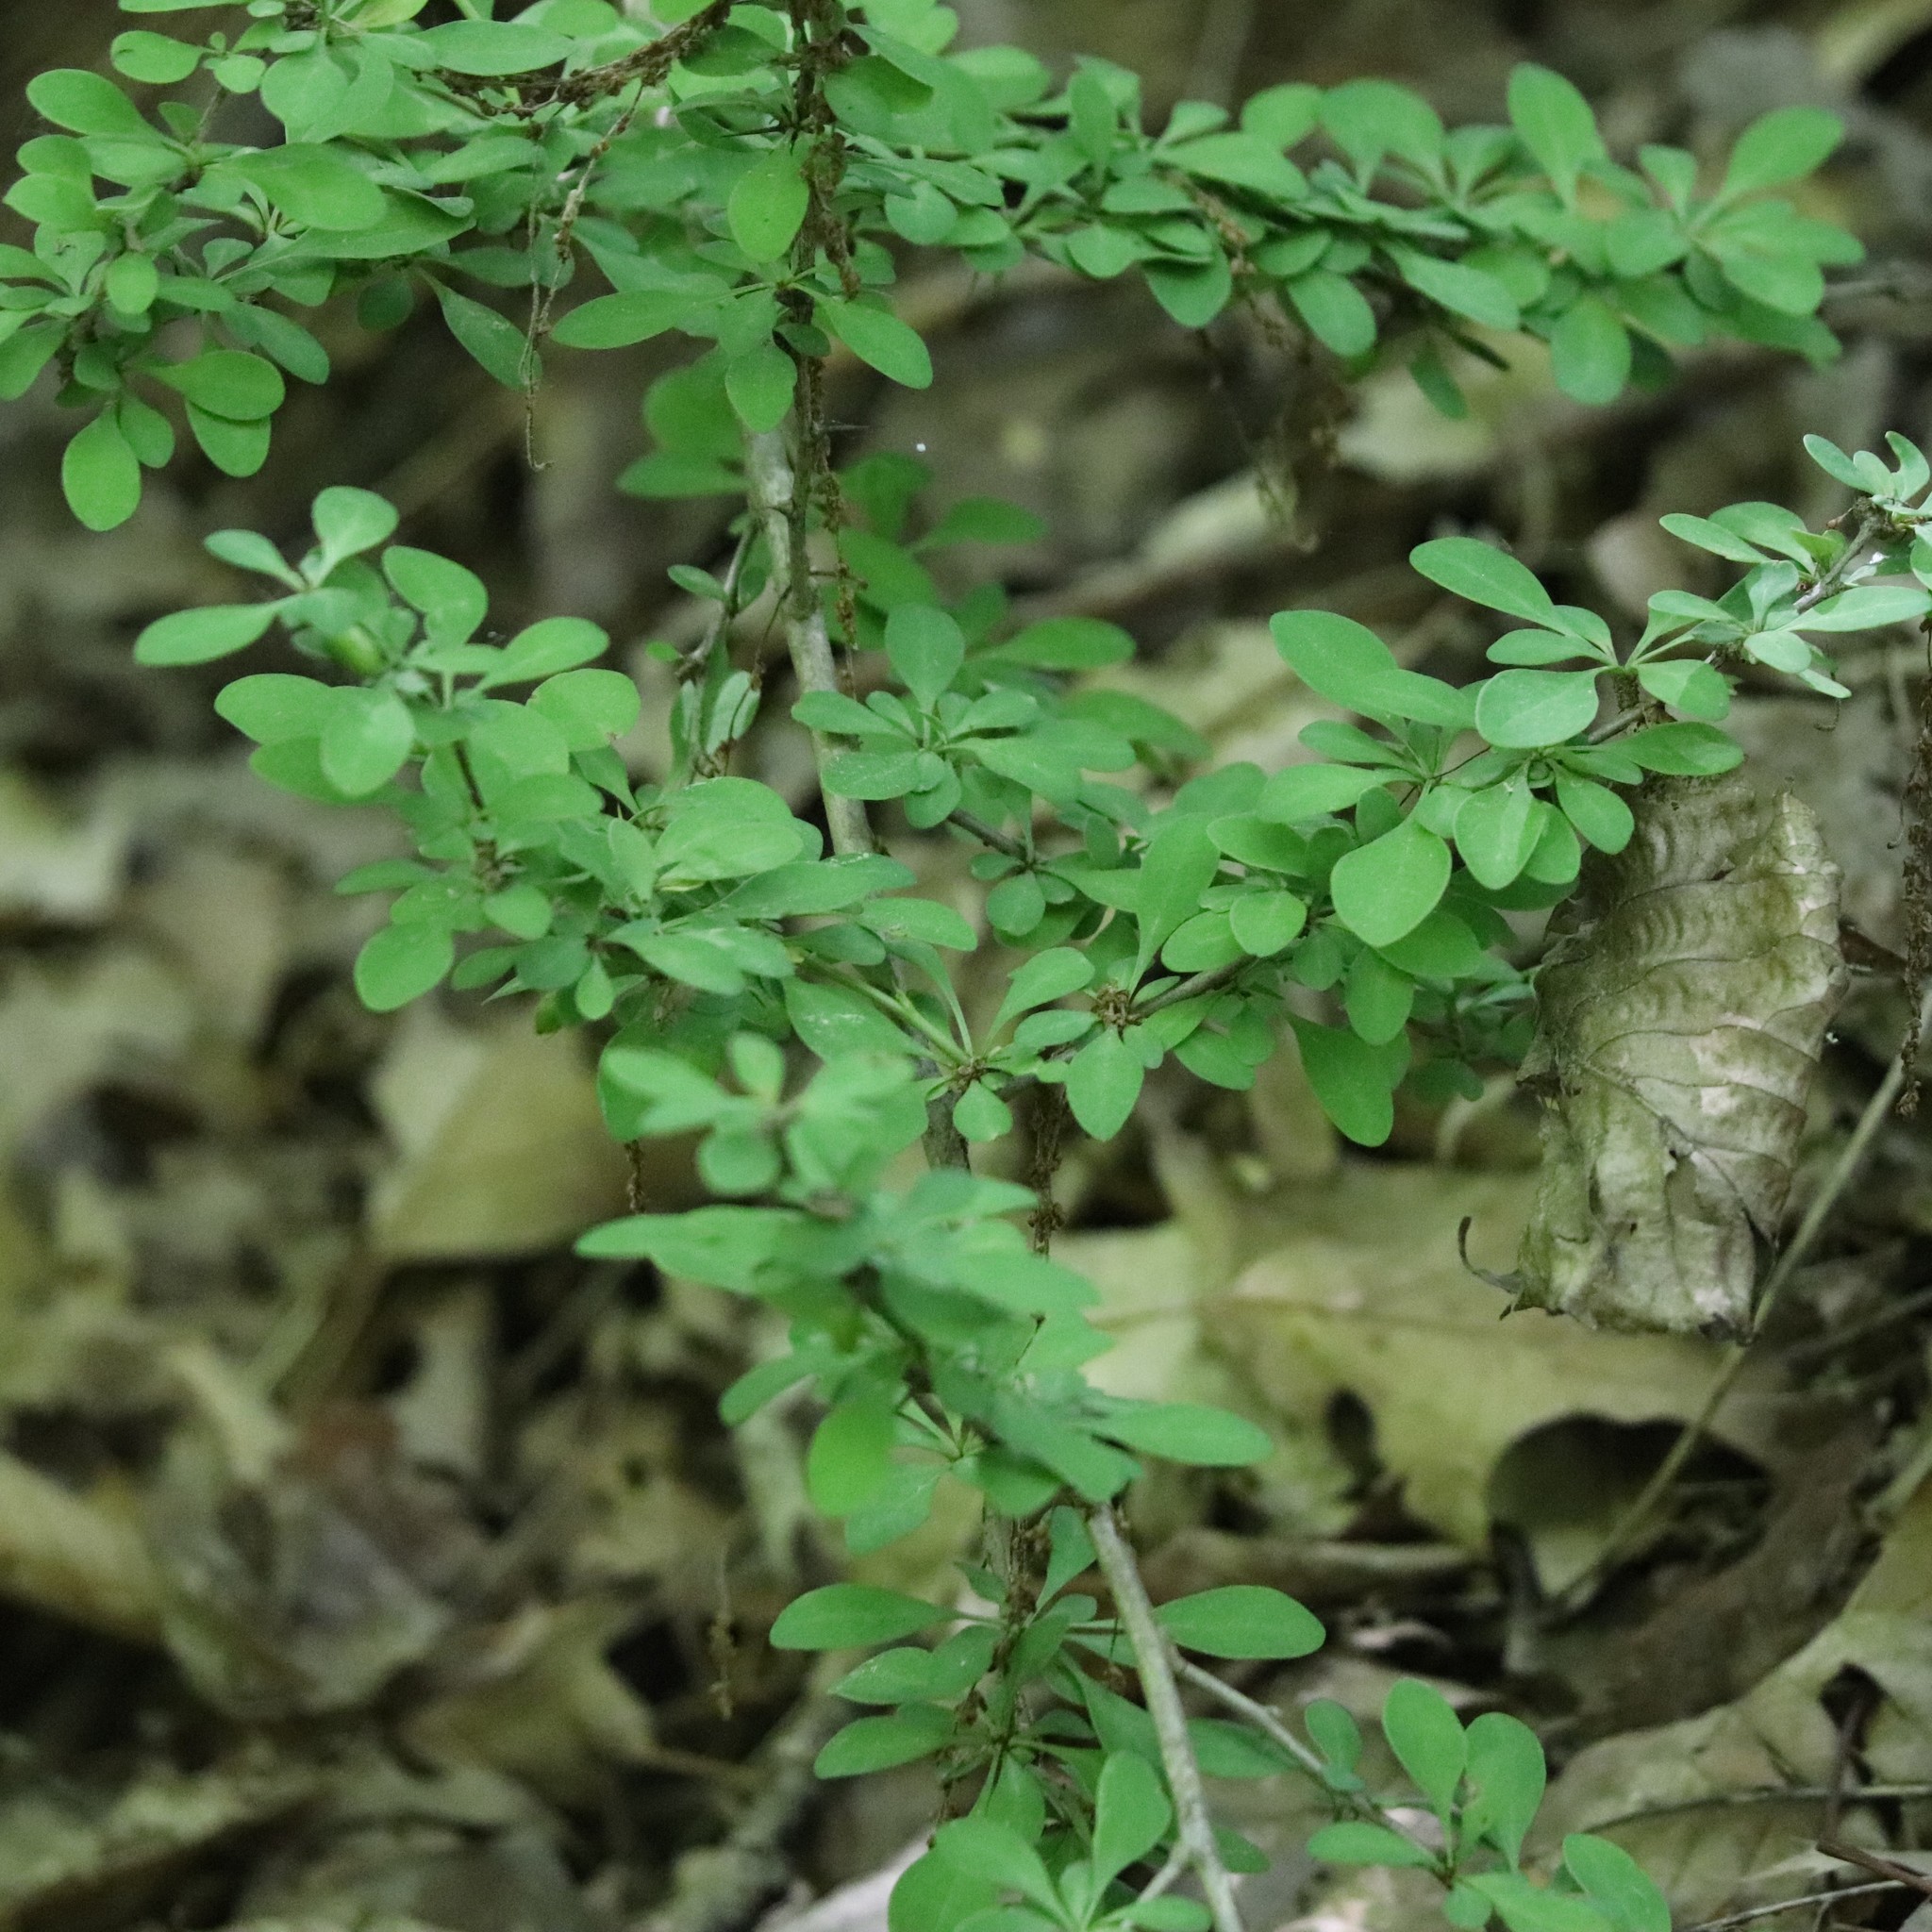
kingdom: Plantae
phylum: Tracheophyta
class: Magnoliopsida
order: Ranunculales
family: Berberidaceae
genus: Berberis
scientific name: Berberis thunbergii
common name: Japanese barberry
